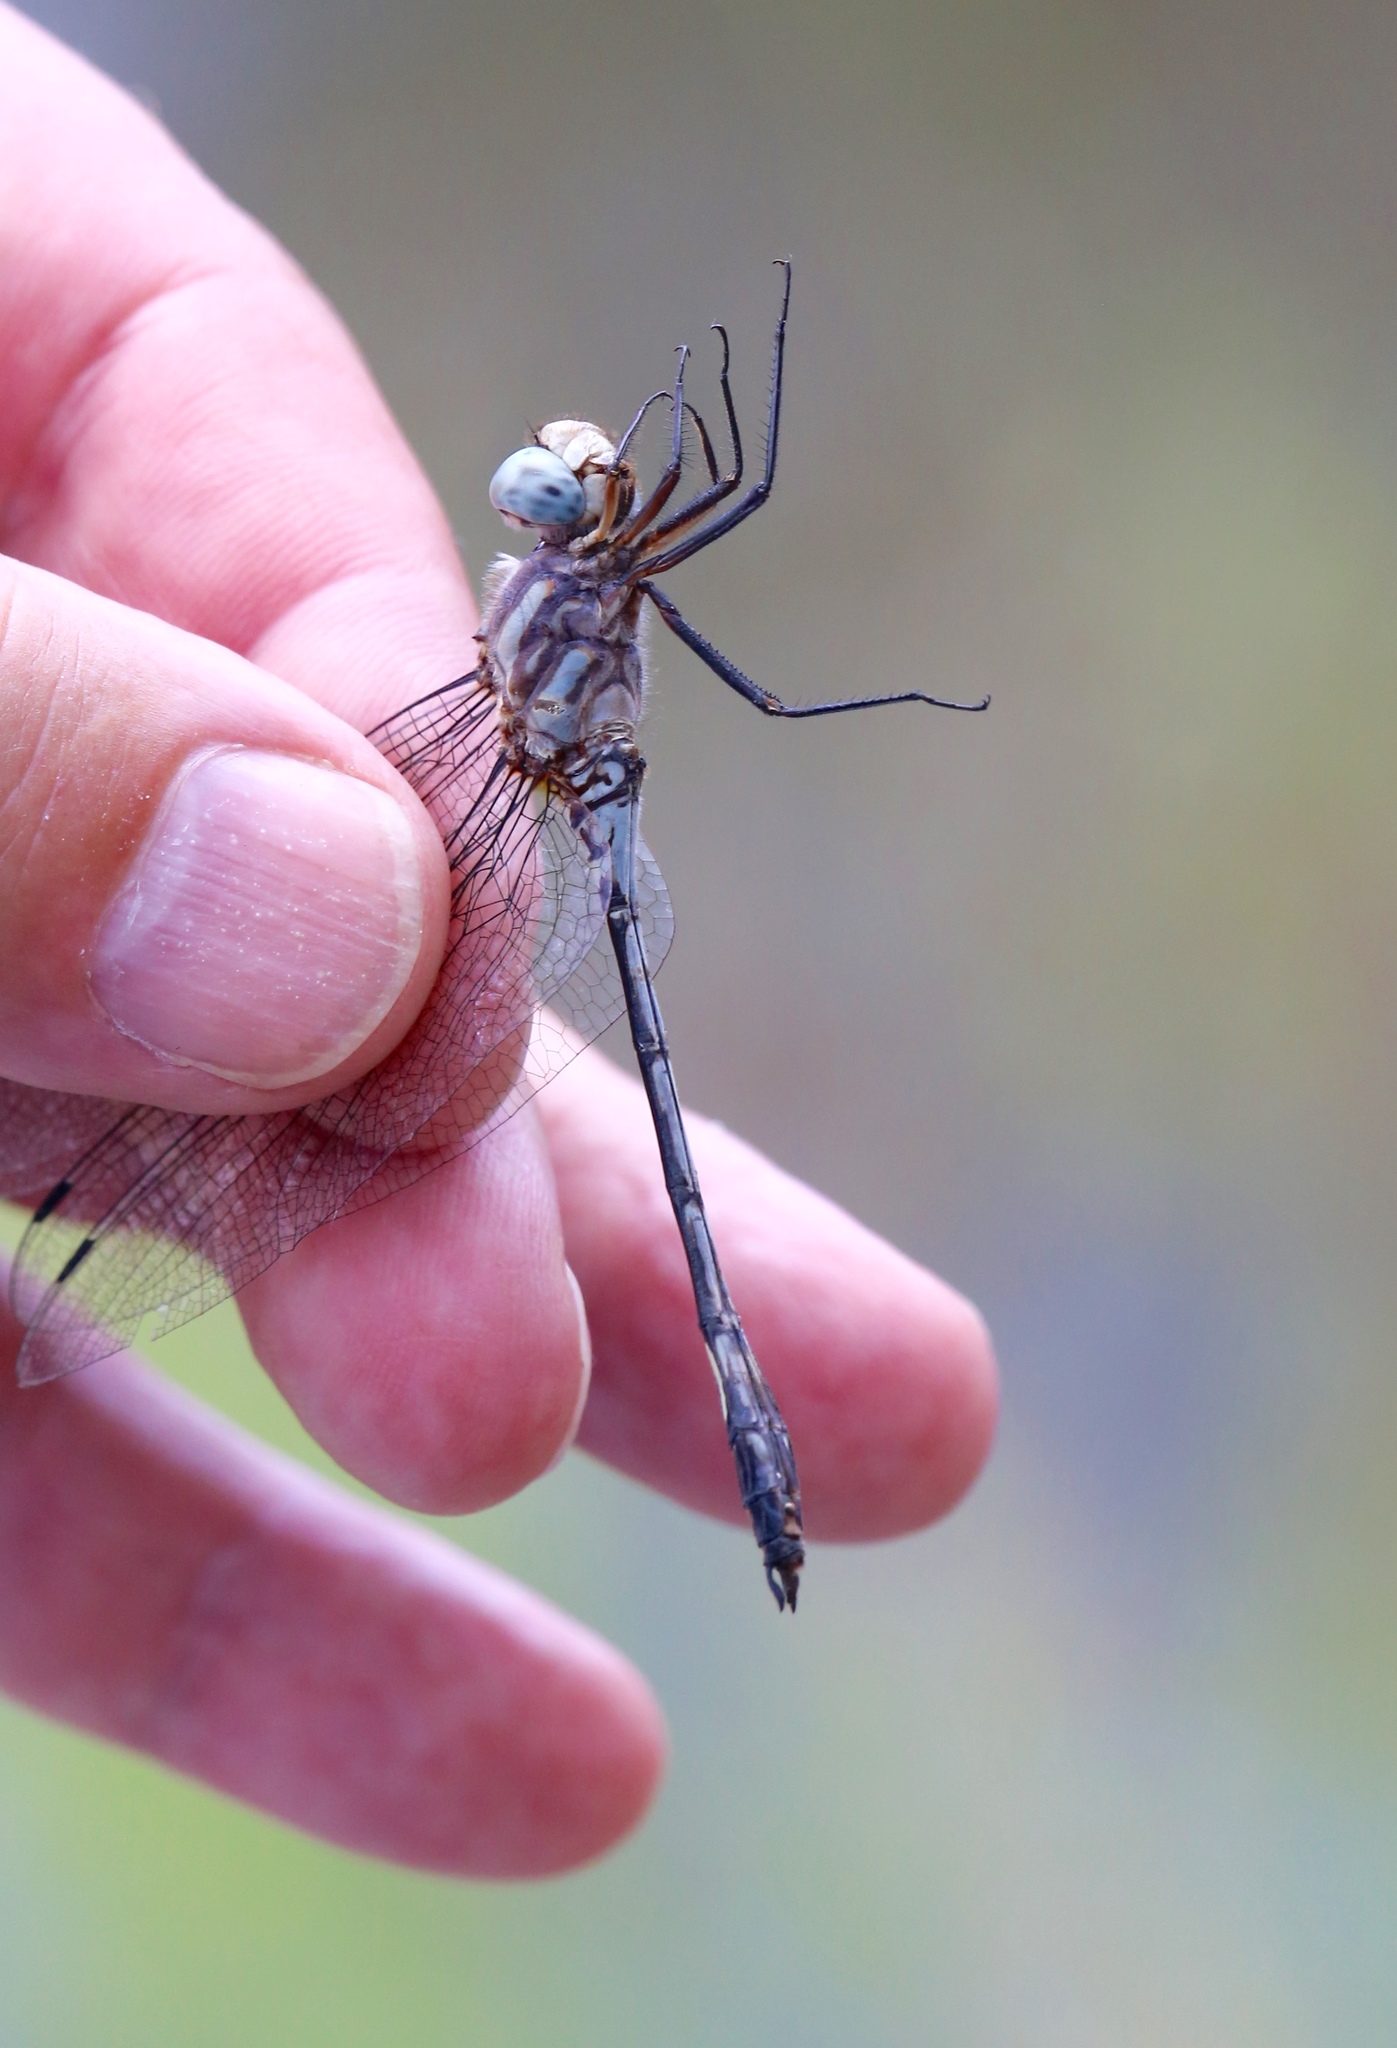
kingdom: Animalia
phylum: Arthropoda
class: Insecta
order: Odonata
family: Libellulidae
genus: Brechmorhoga
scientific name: Brechmorhoga mendax
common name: Pale-faced clubskimmer
